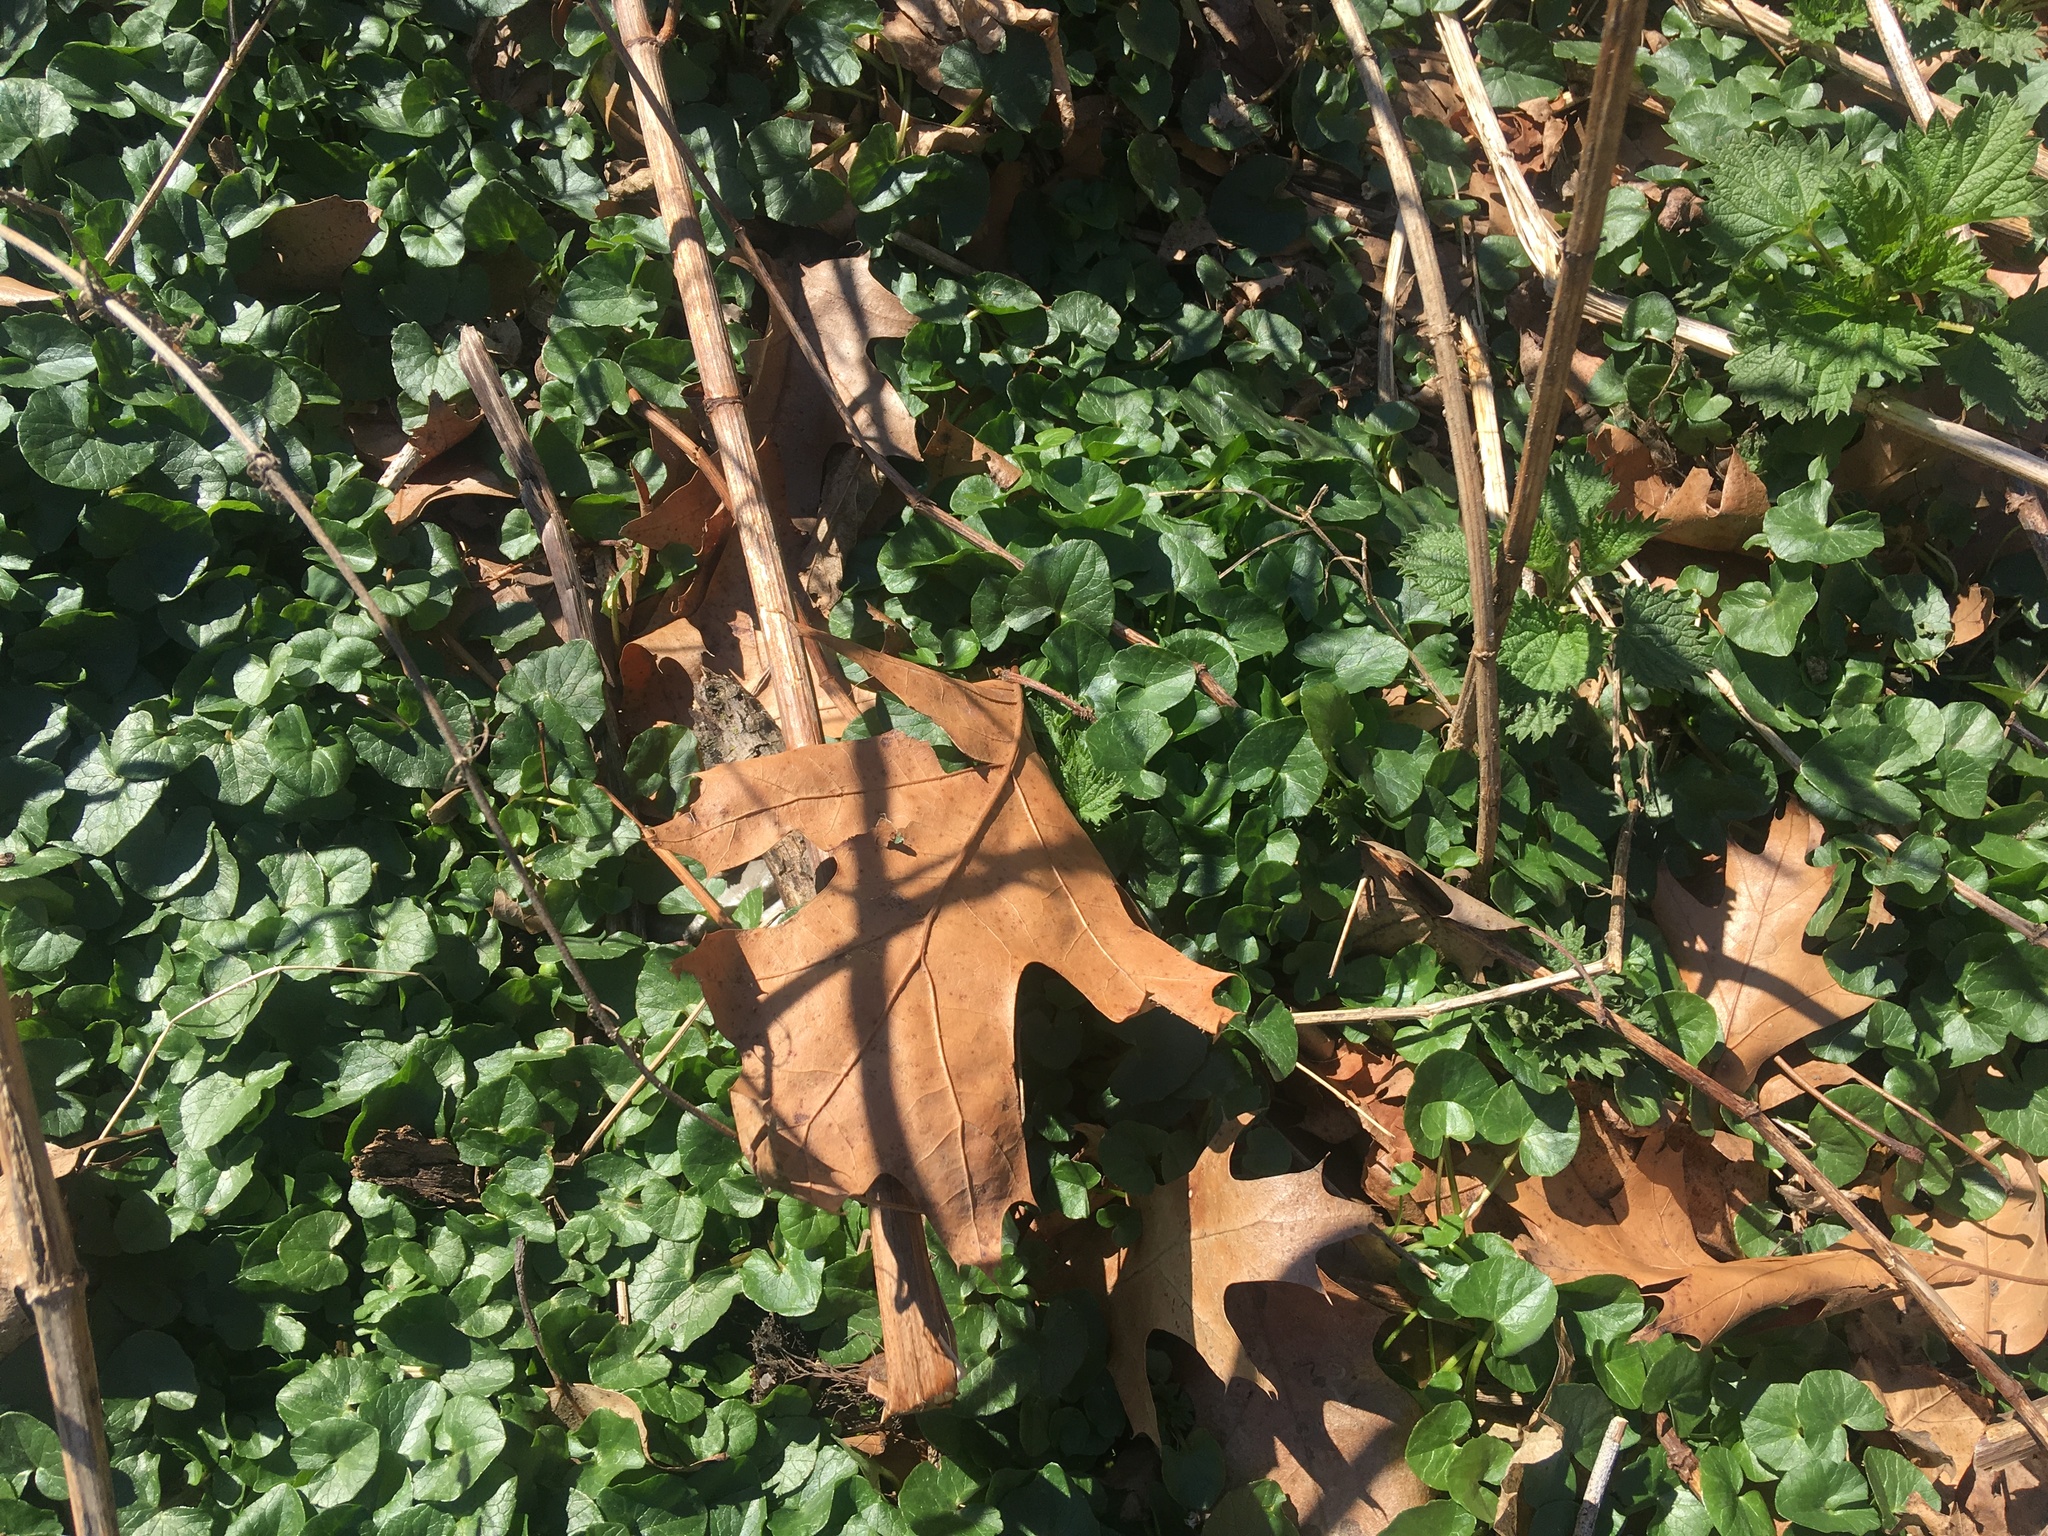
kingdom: Plantae
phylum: Tracheophyta
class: Magnoliopsida
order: Ranunculales
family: Ranunculaceae
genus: Ficaria
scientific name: Ficaria verna
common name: Lesser celandine
